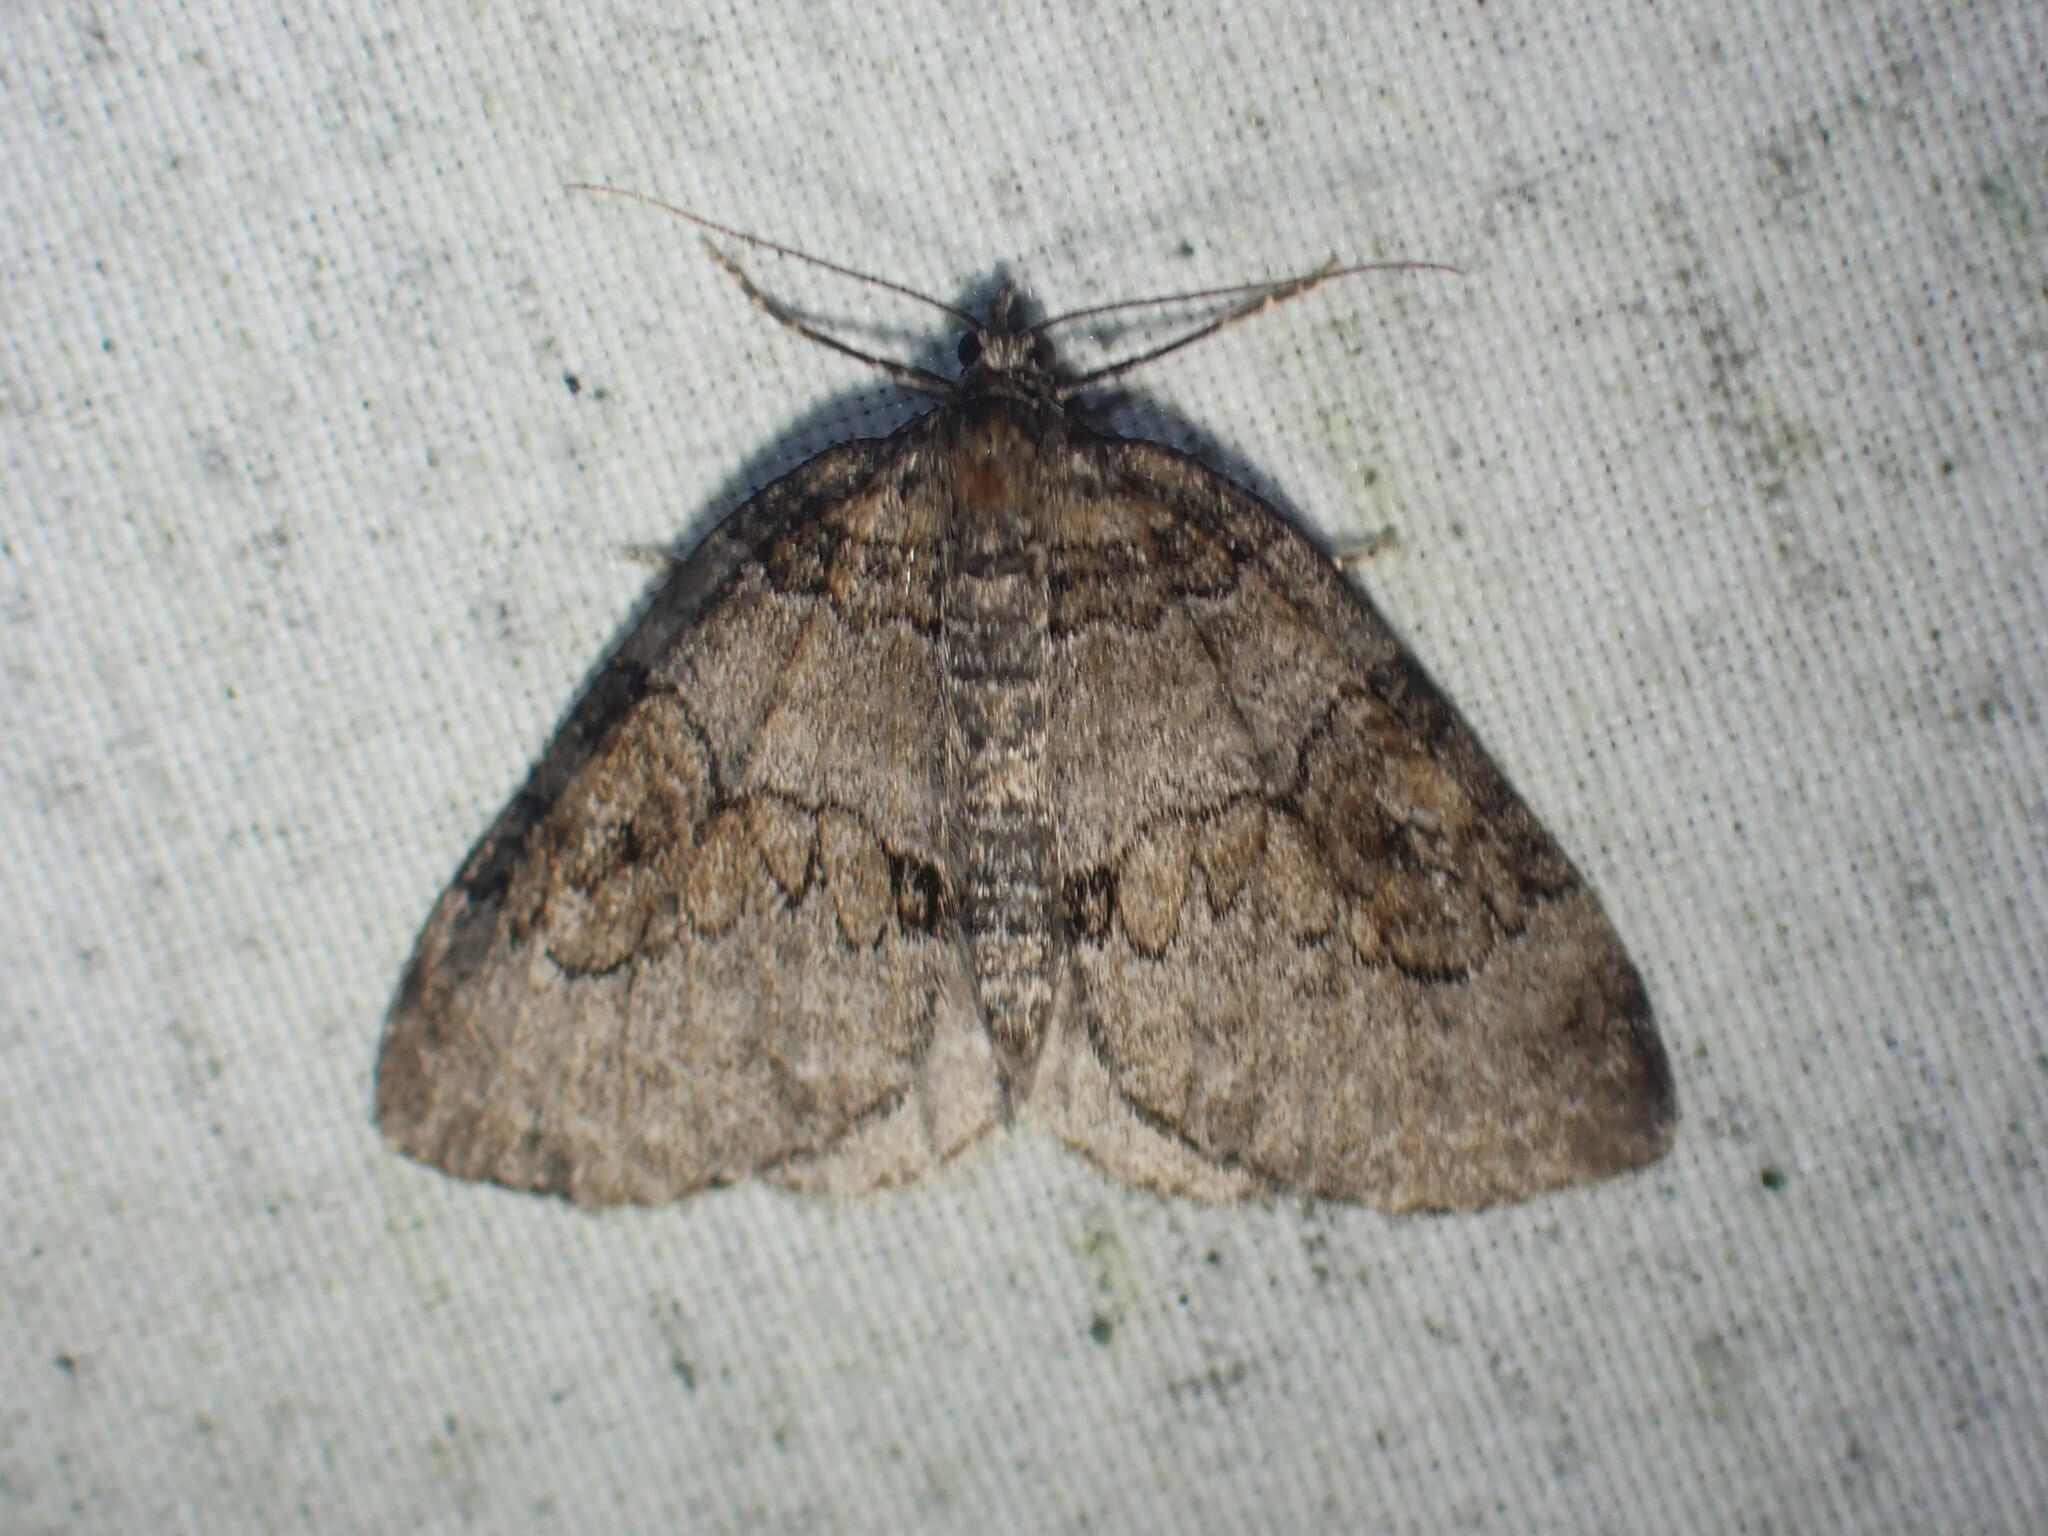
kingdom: Animalia
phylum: Arthropoda
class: Insecta
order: Lepidoptera
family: Geometridae
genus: Plemyria
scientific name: Plemyria georgii
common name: George's carpet moth
